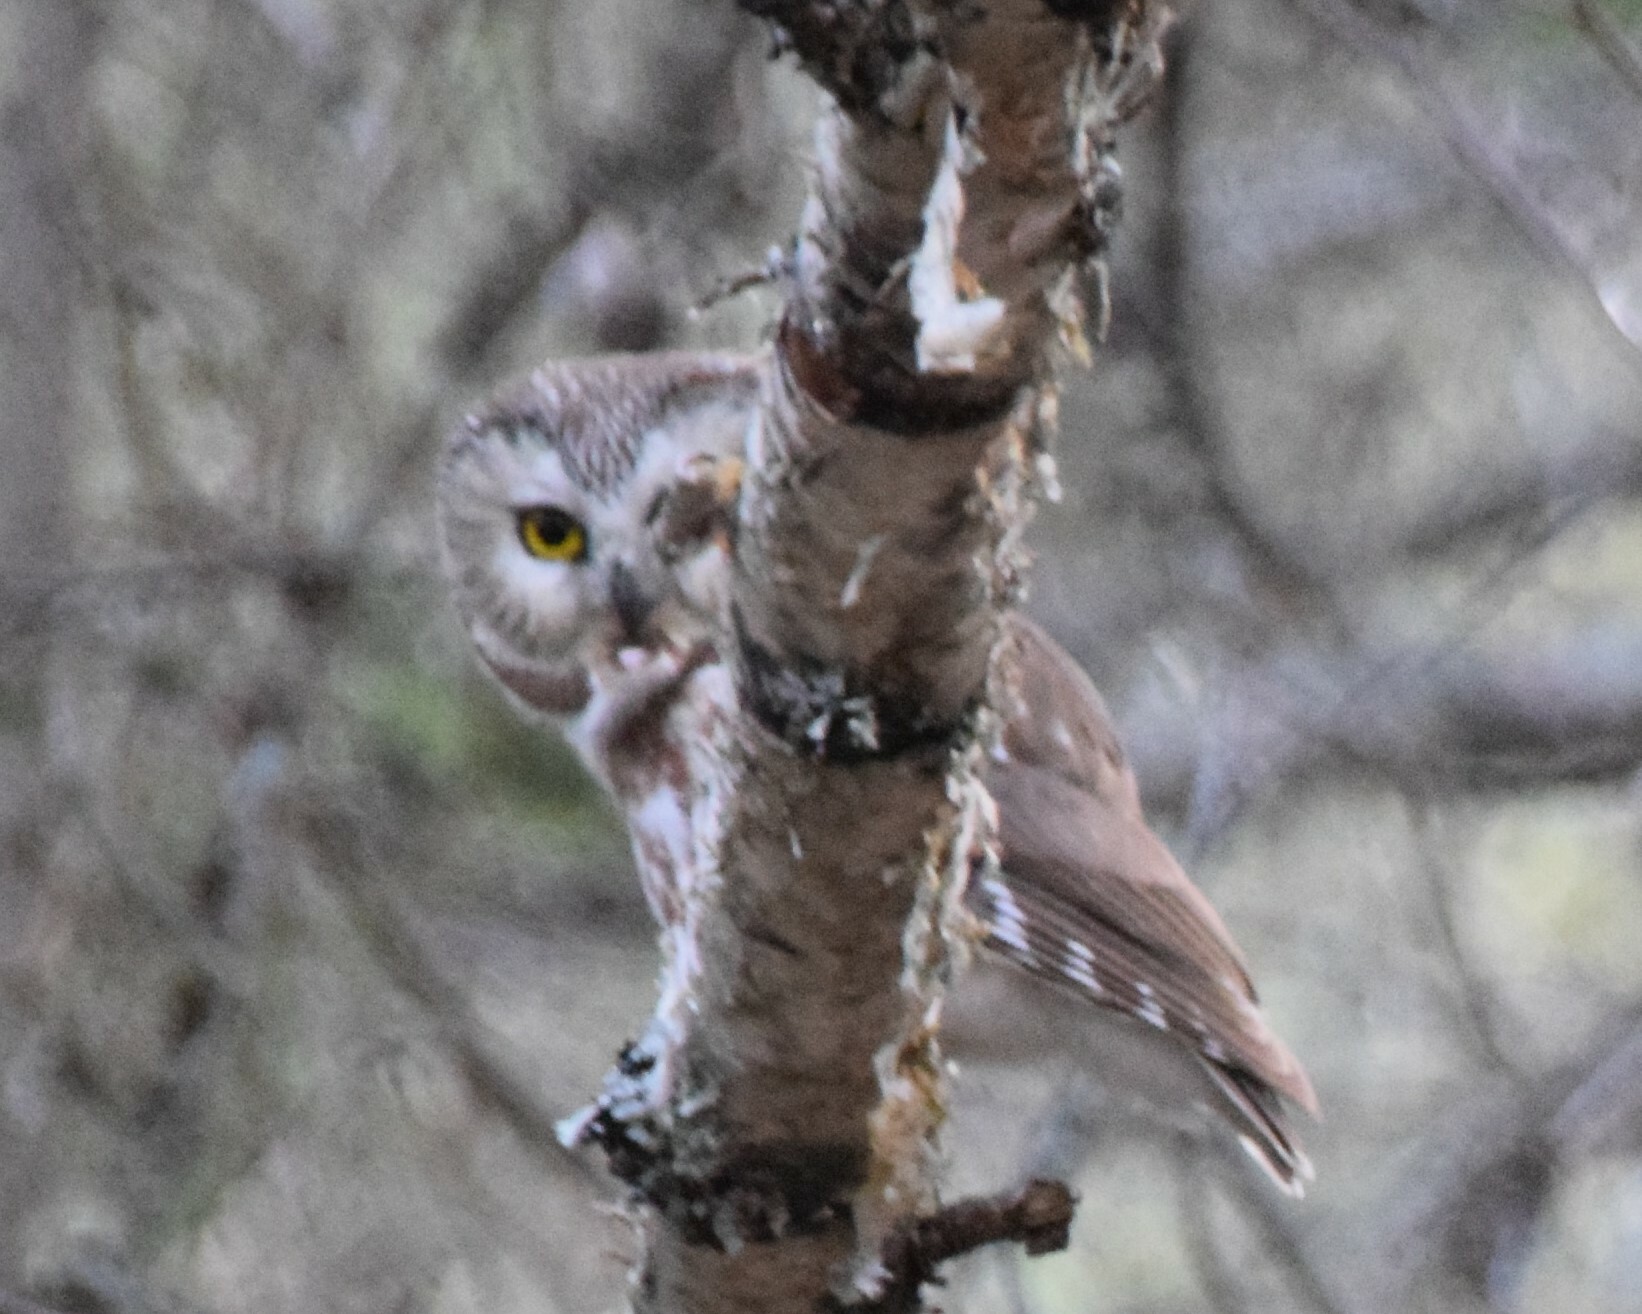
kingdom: Animalia
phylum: Chordata
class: Aves
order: Strigiformes
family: Strigidae
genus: Aegolius
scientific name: Aegolius acadicus
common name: Northern saw-whet owl
